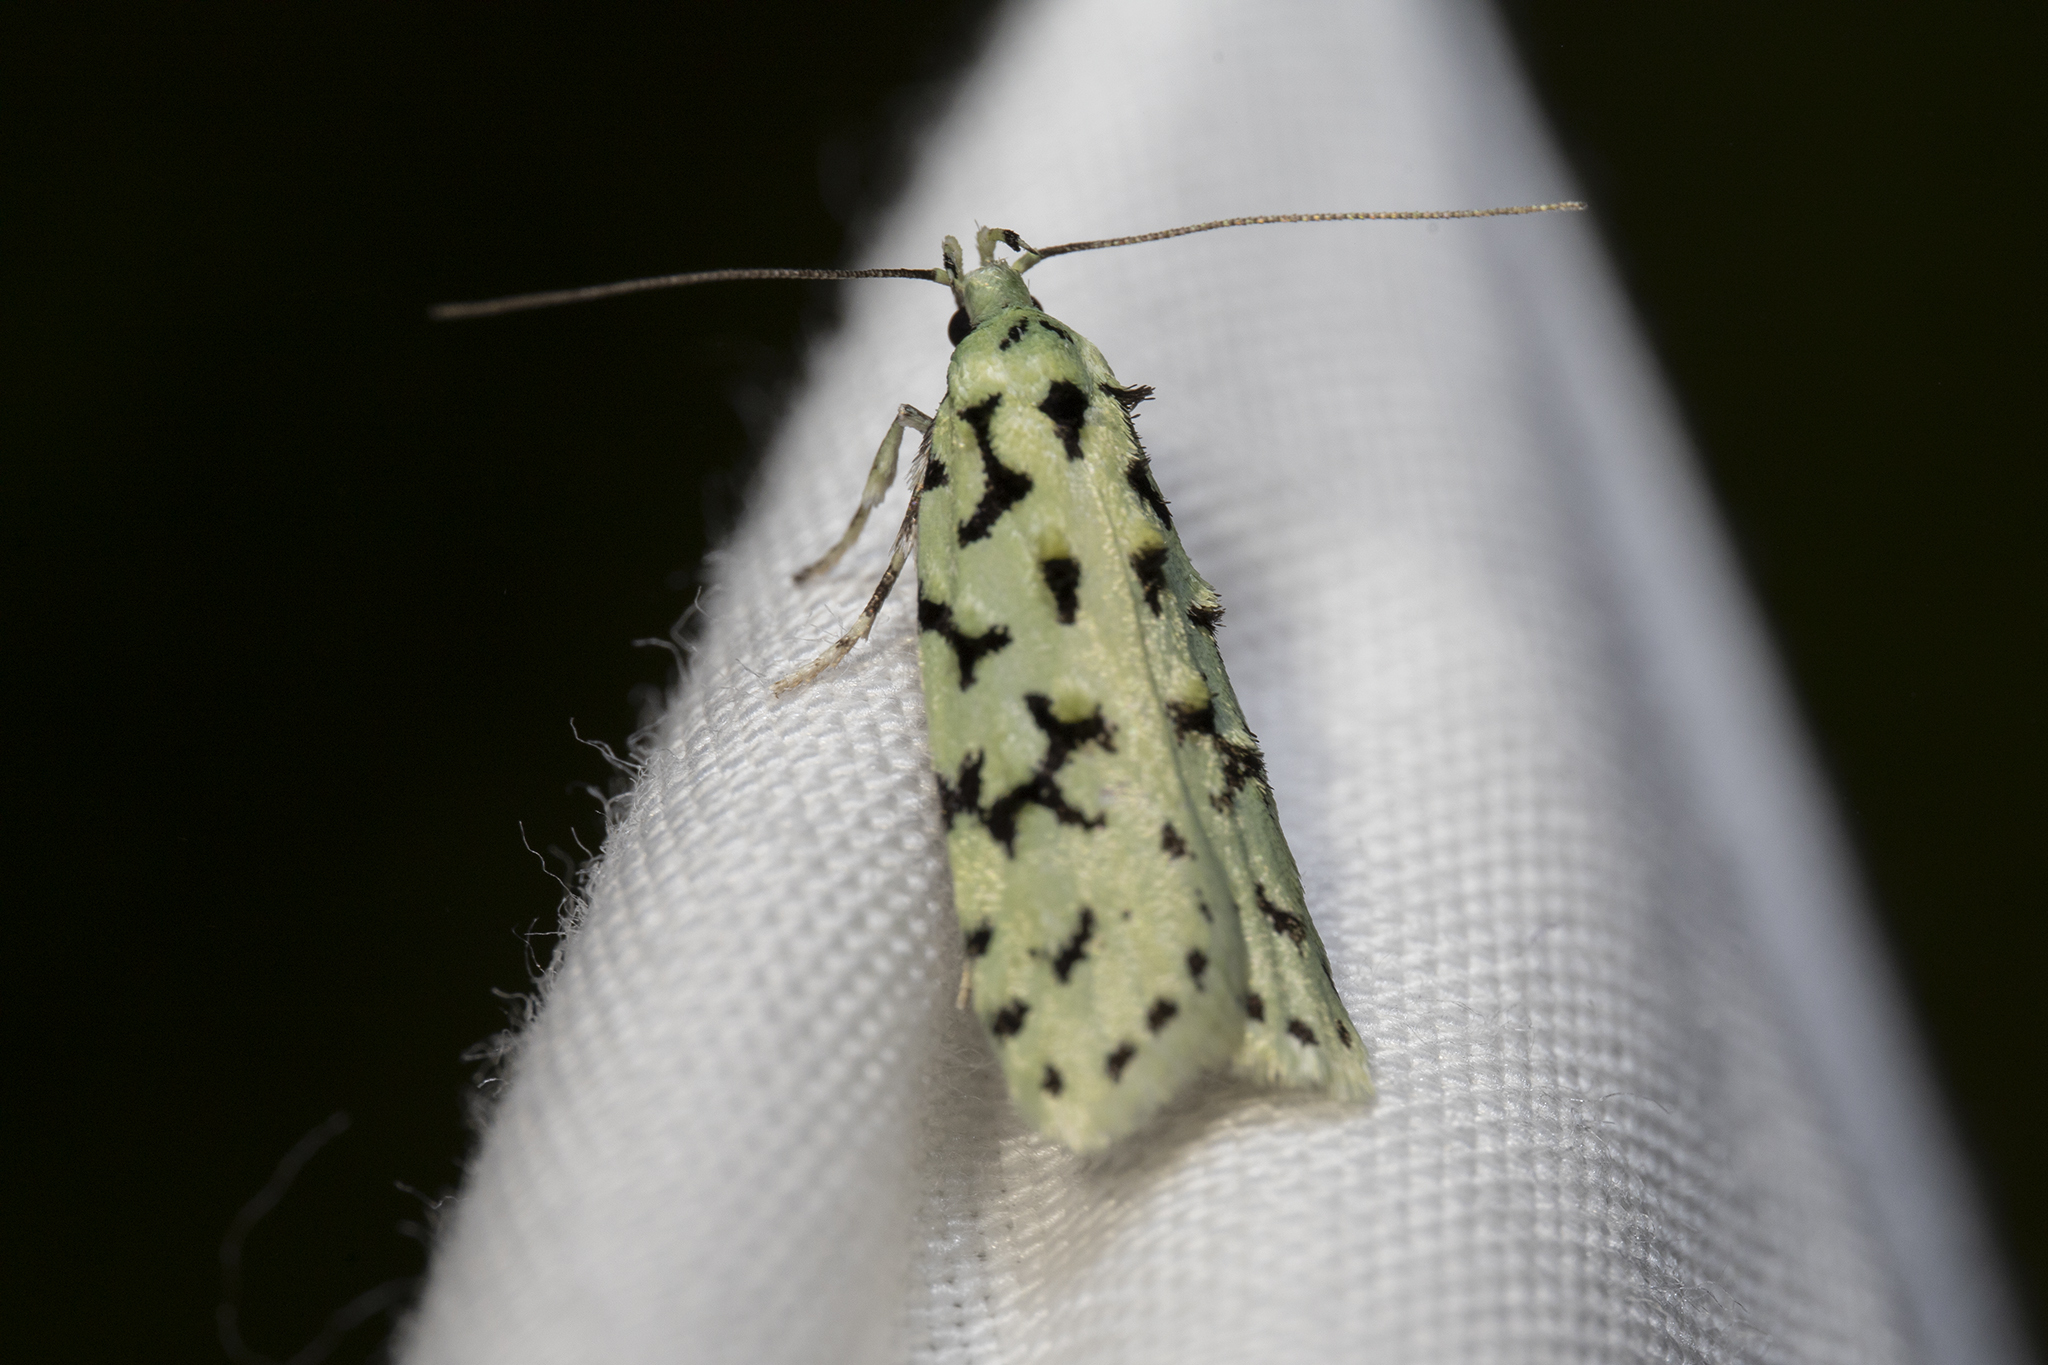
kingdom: Animalia
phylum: Arthropoda
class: Insecta
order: Lepidoptera
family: Oecophoridae
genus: Izatha
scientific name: Izatha huttoni
